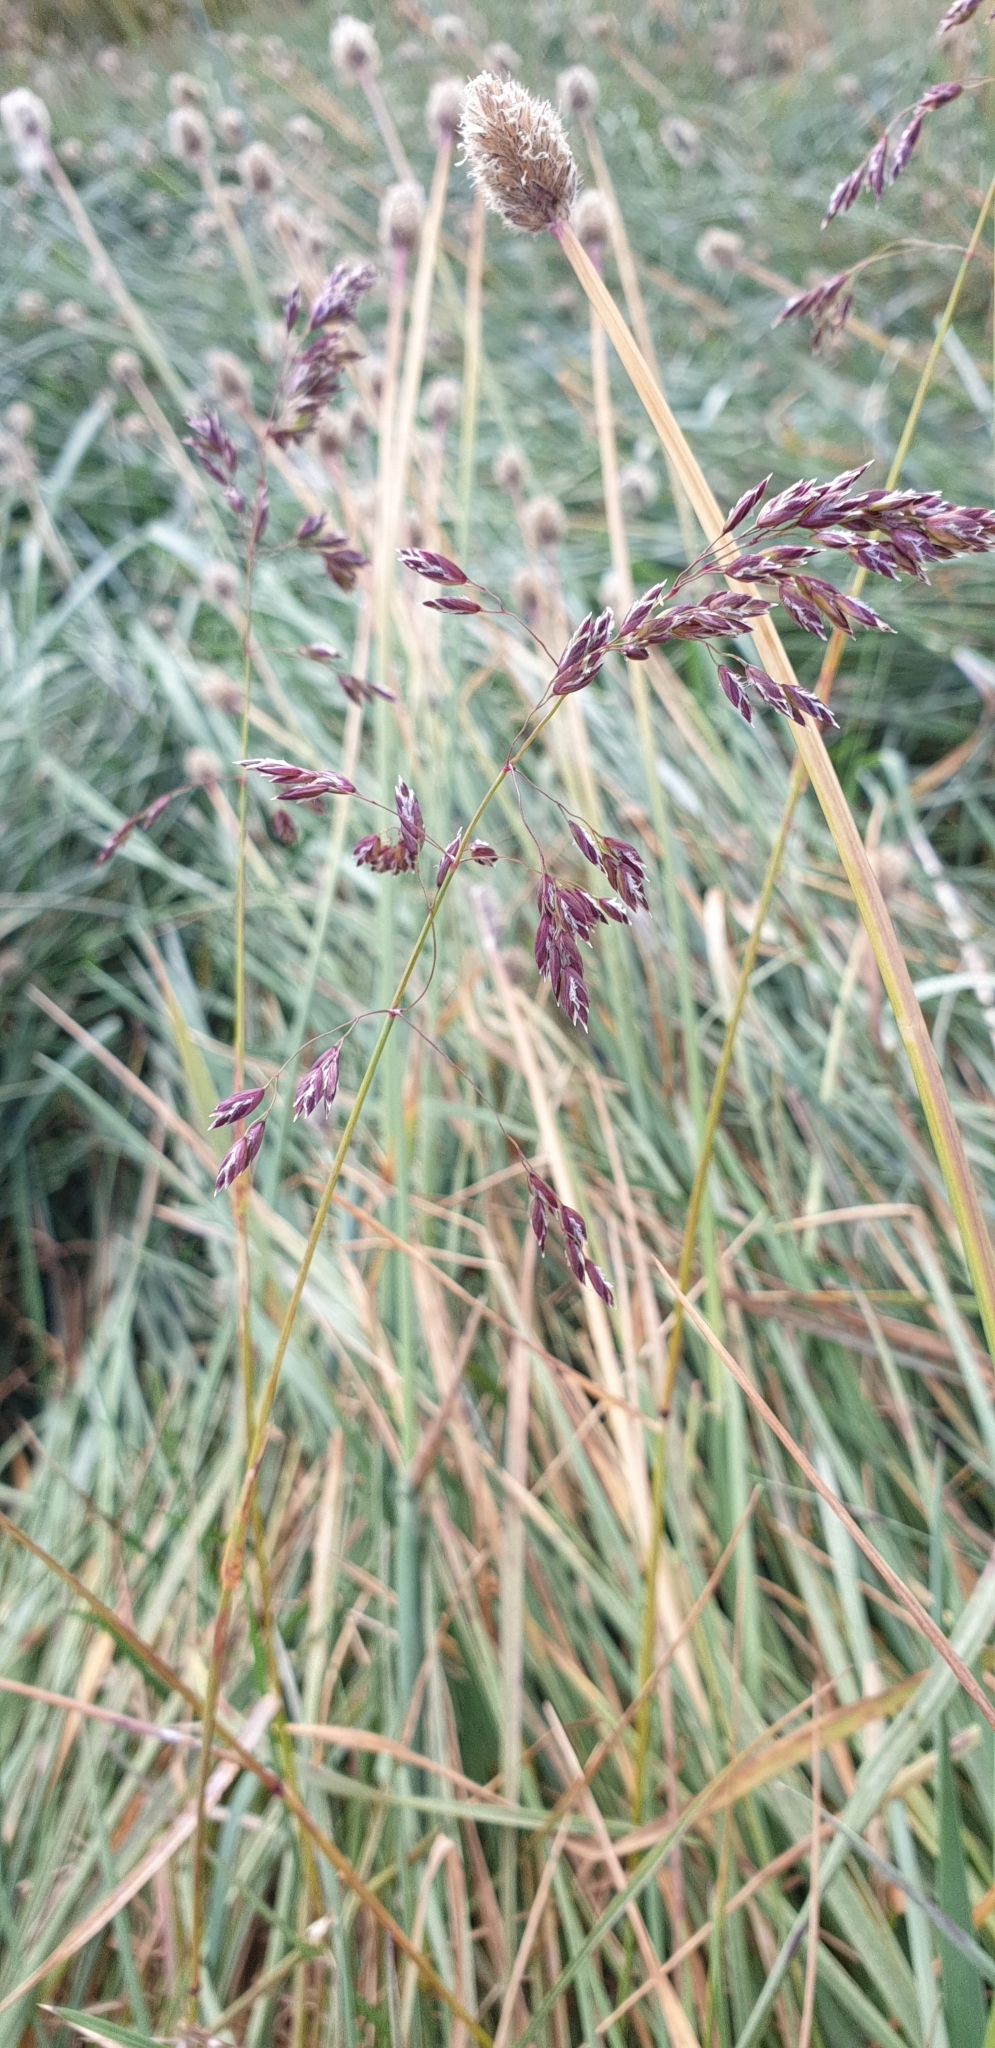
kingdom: Plantae
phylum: Tracheophyta
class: Liliopsida
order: Poales
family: Poaceae
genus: Poa
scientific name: Poa alpina
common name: Alpine bluegrass
